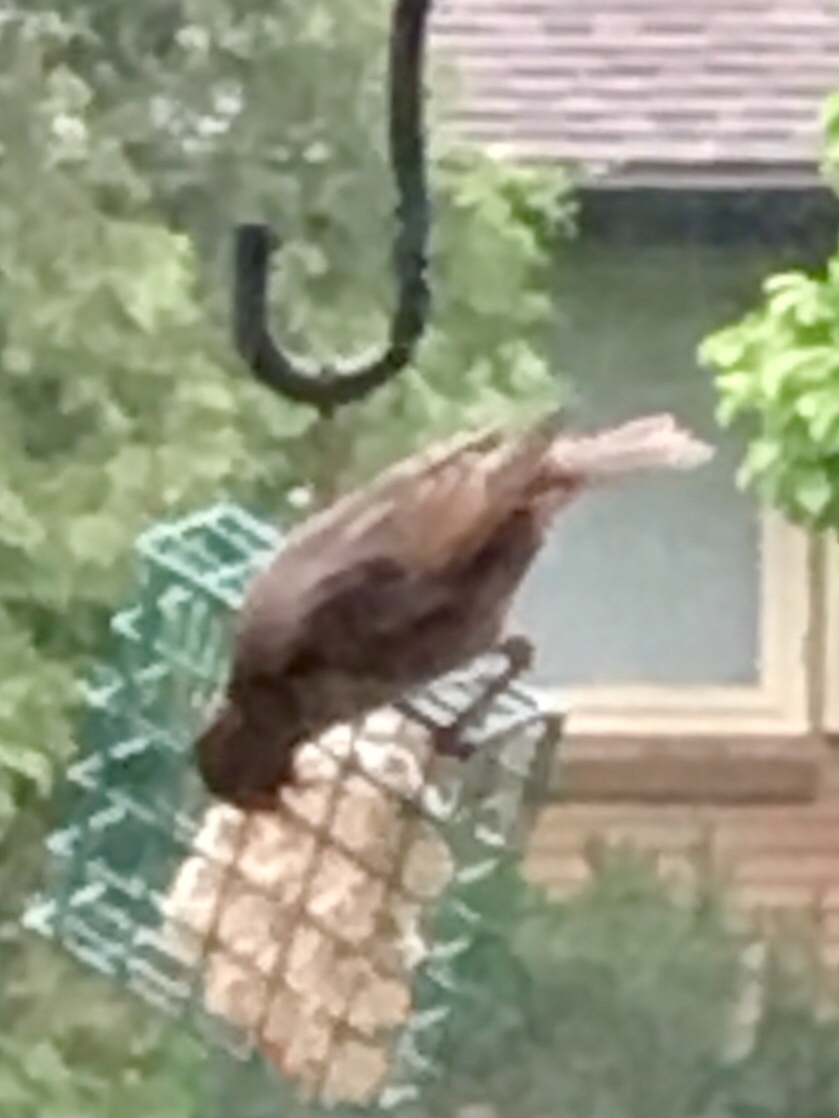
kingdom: Animalia
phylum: Chordata
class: Aves
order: Passeriformes
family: Sturnidae
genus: Sturnus
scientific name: Sturnus vulgaris
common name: Common starling
